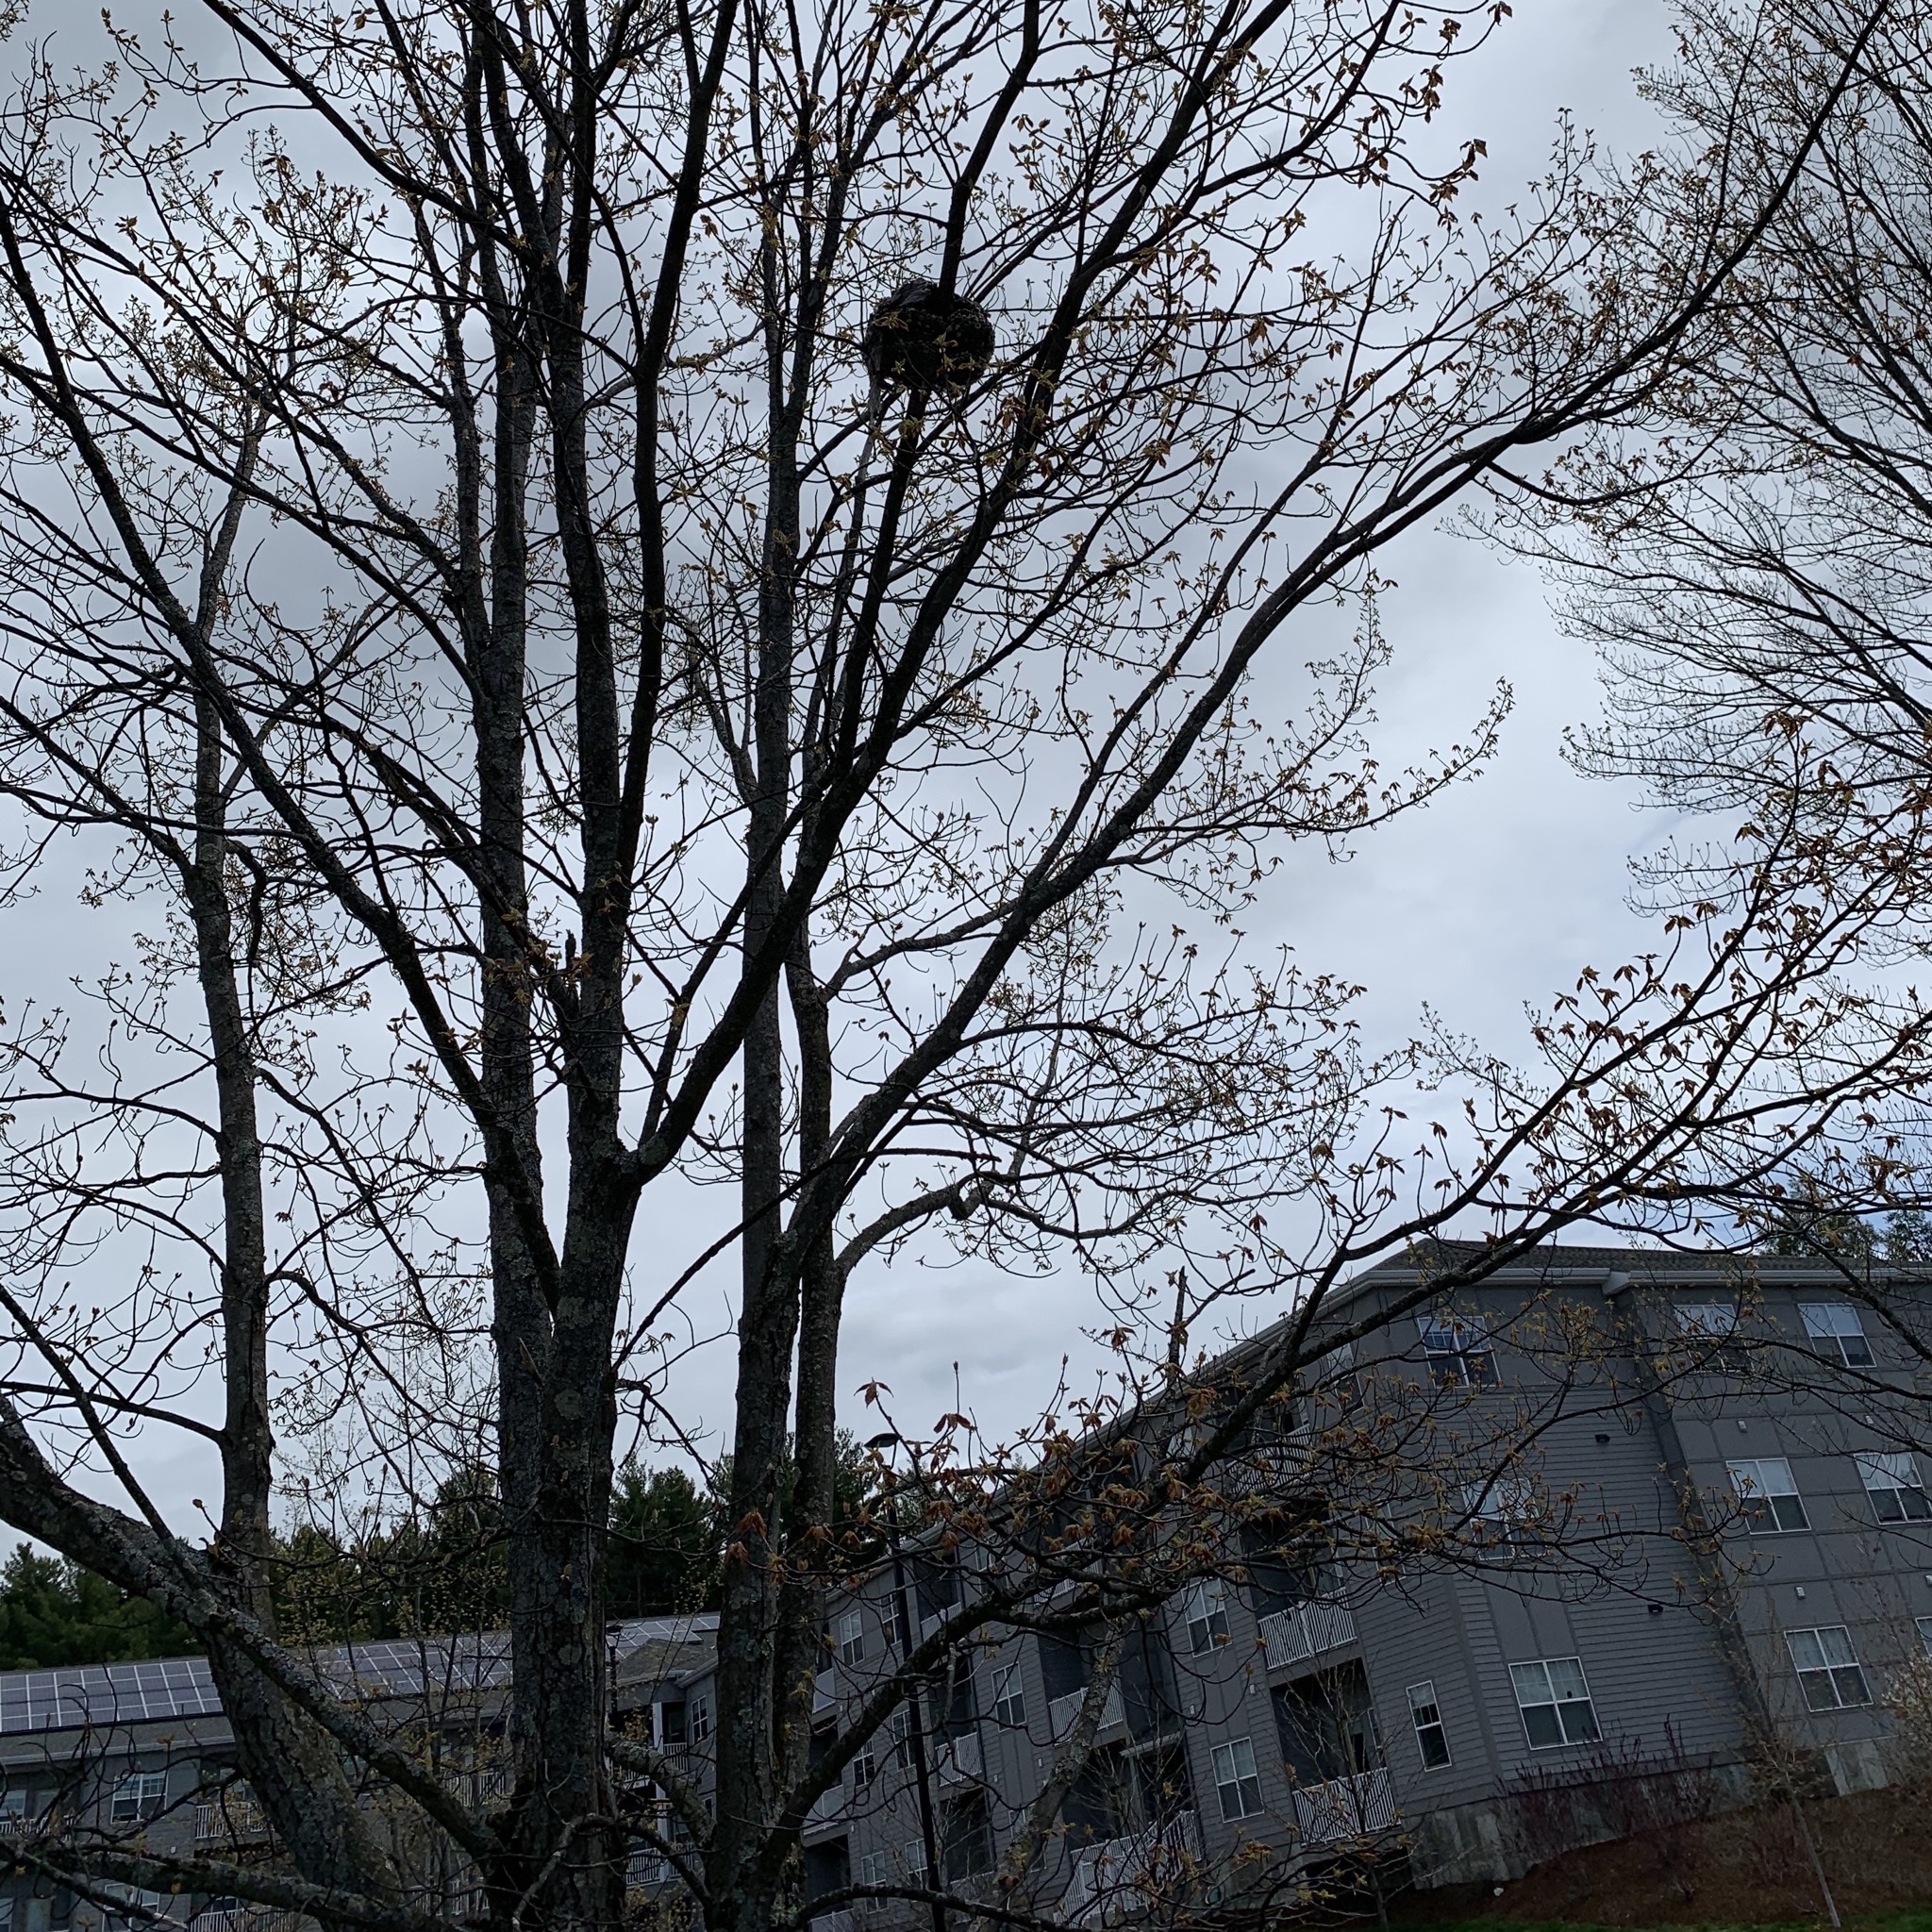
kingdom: Animalia
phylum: Arthropoda
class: Insecta
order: Hymenoptera
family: Vespidae
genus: Dolichovespula
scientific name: Dolichovespula
